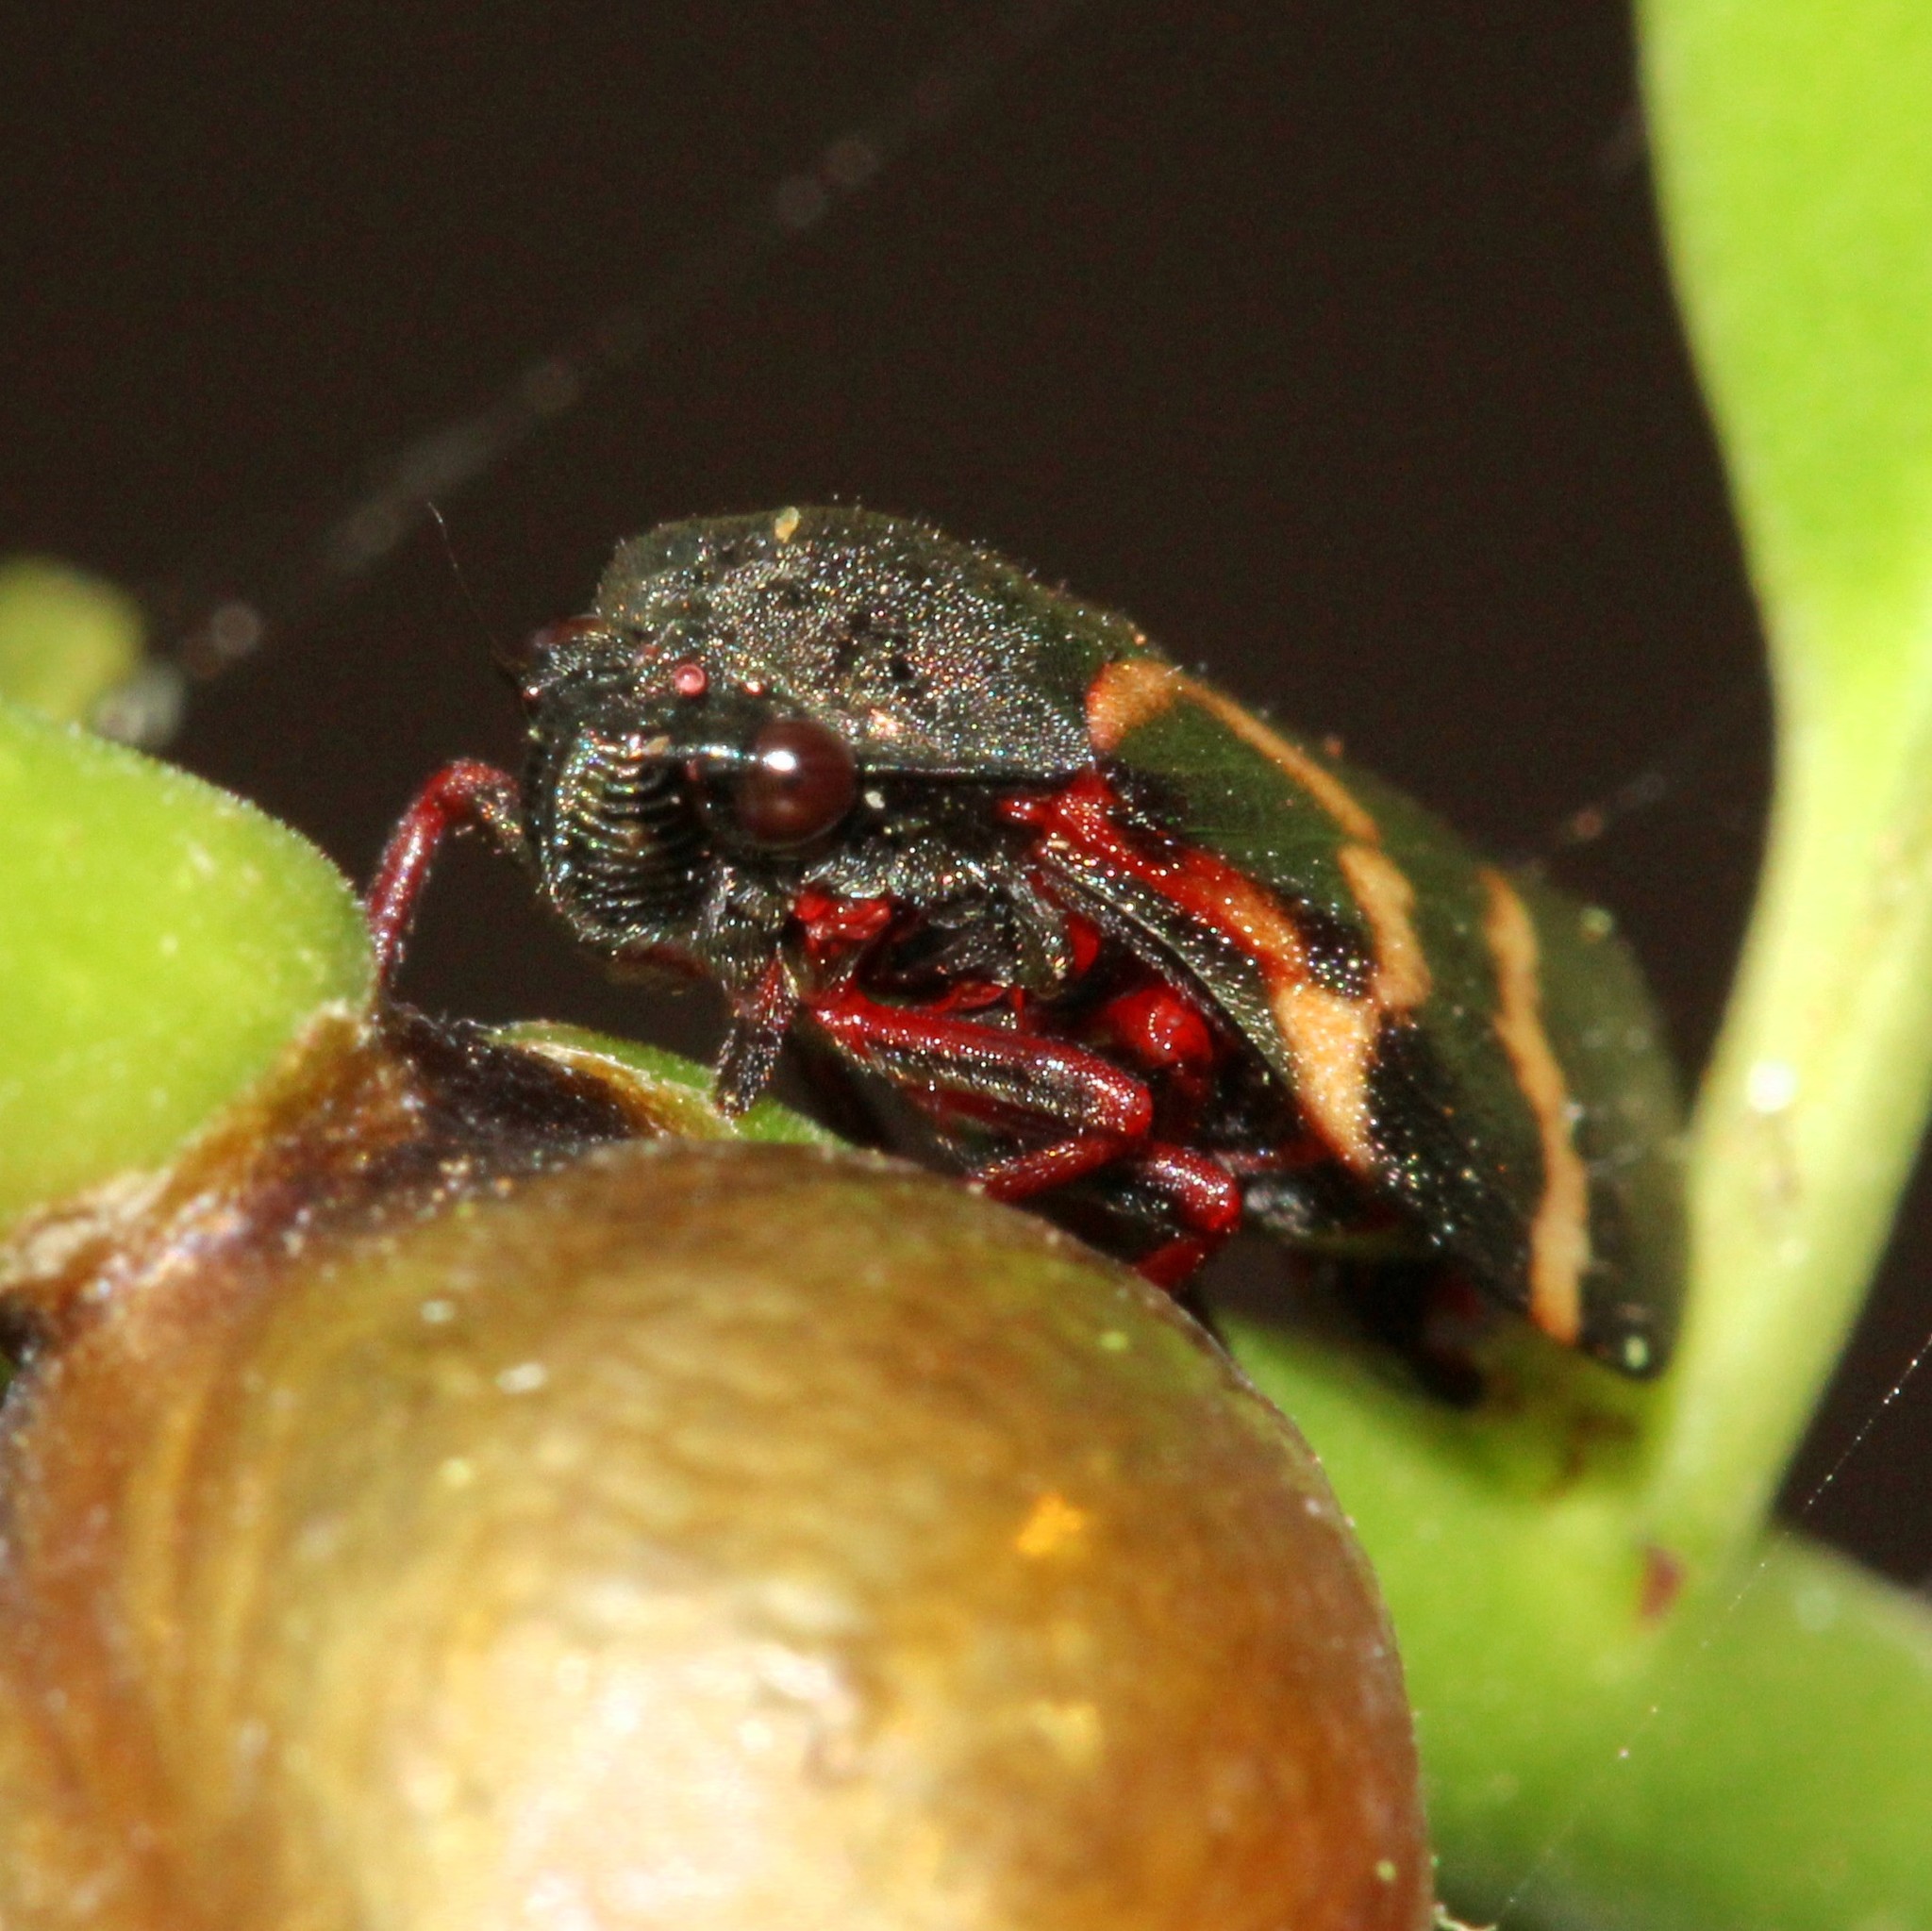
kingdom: Animalia
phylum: Arthropoda
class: Insecta
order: Hemiptera
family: Cercopidae
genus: Deois
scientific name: Deois flexuosa
